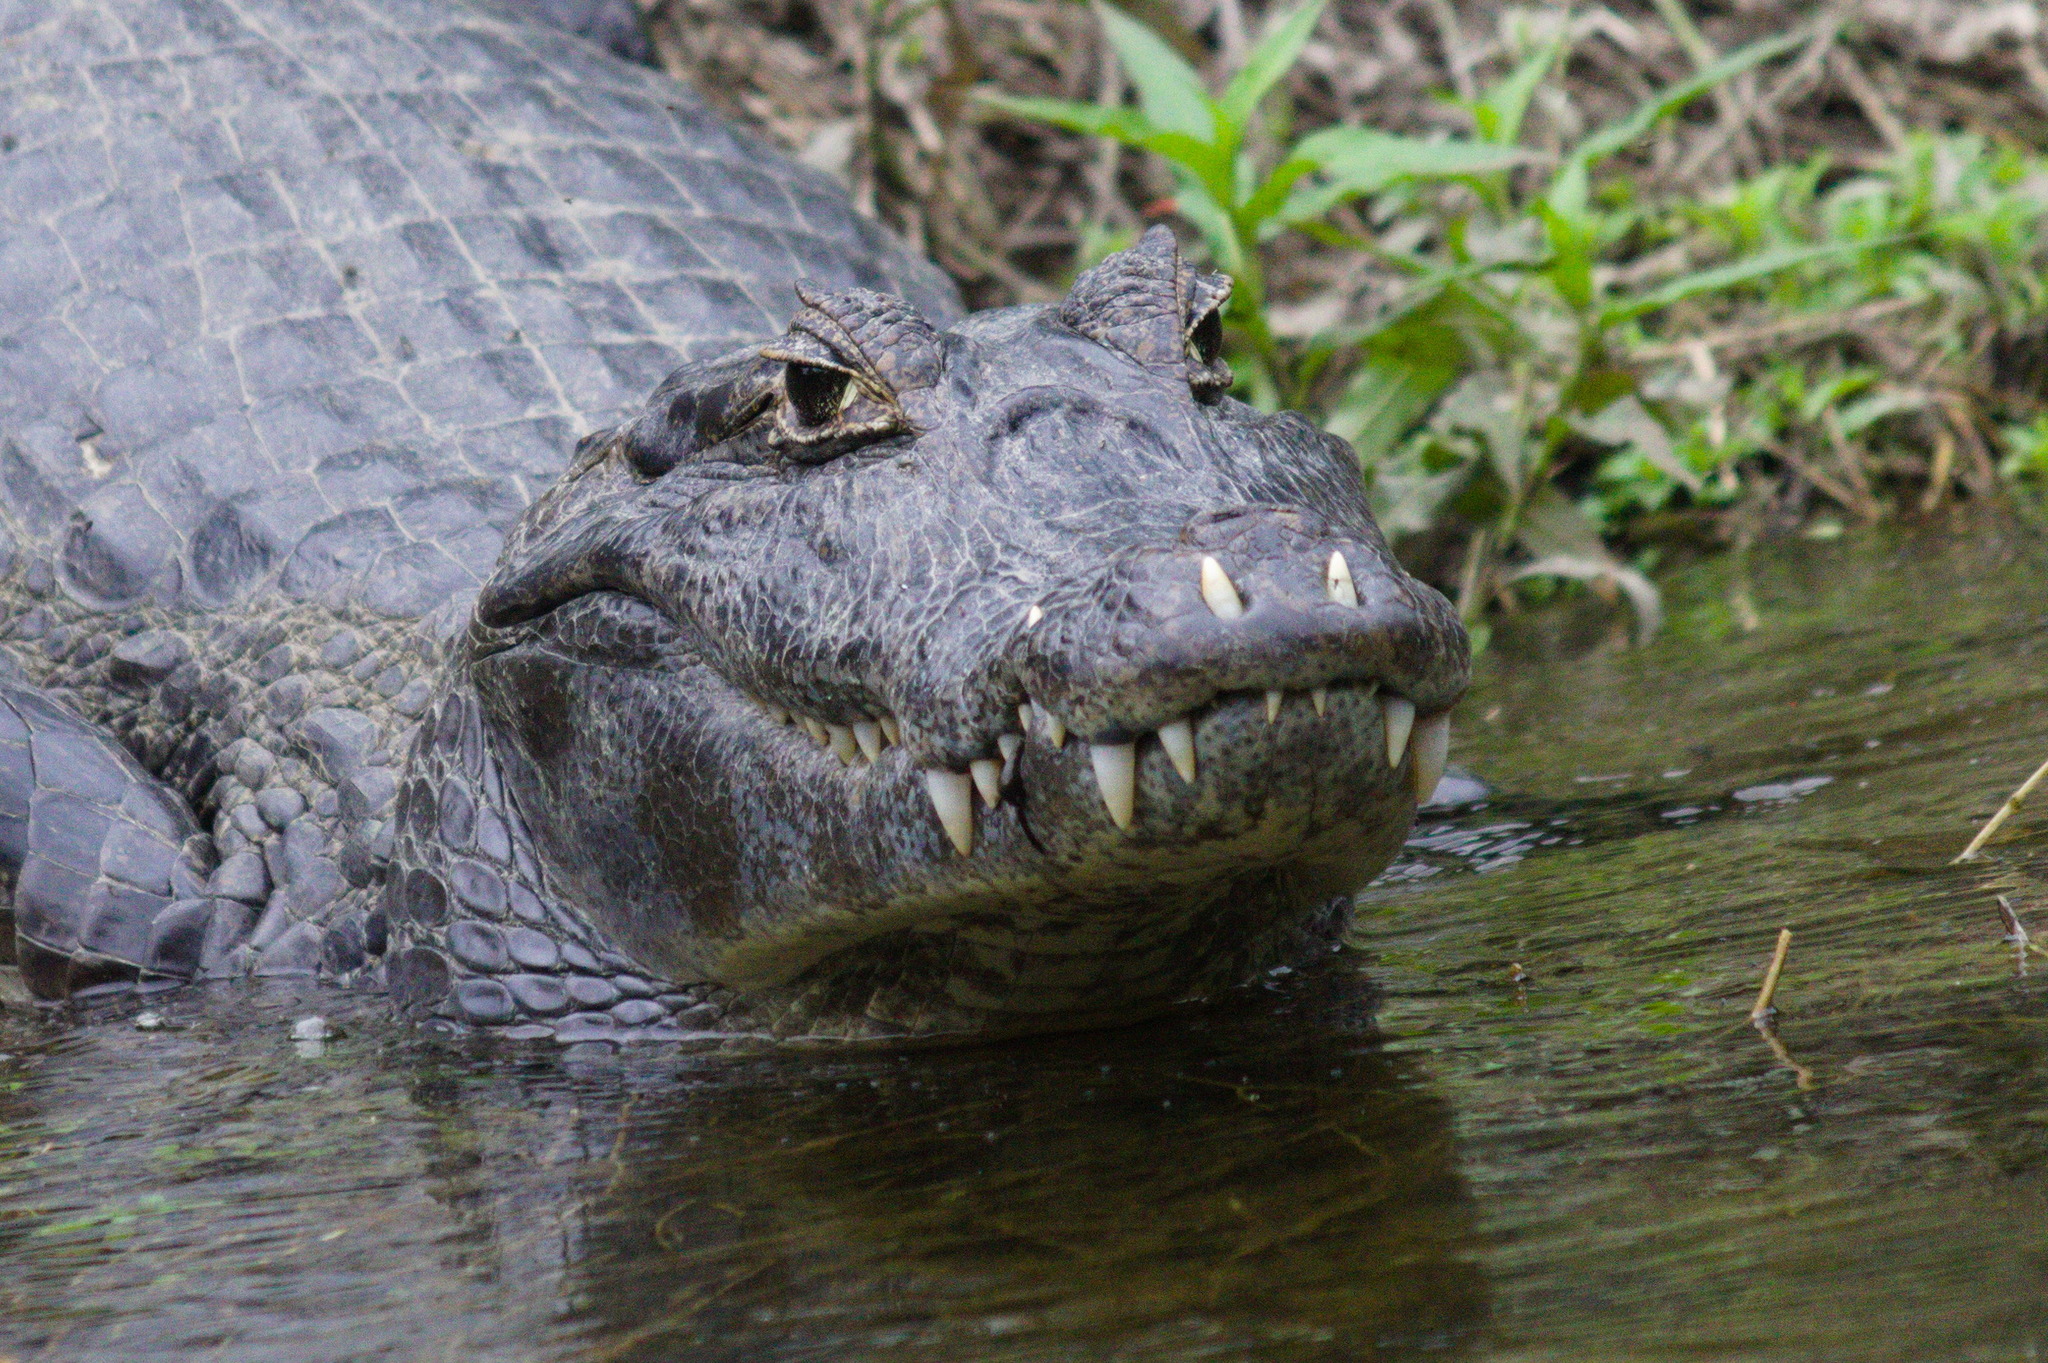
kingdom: Animalia
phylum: Chordata
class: Crocodylia
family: Alligatoridae
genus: Caiman
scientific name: Caiman yacare
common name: Yacare caiman
